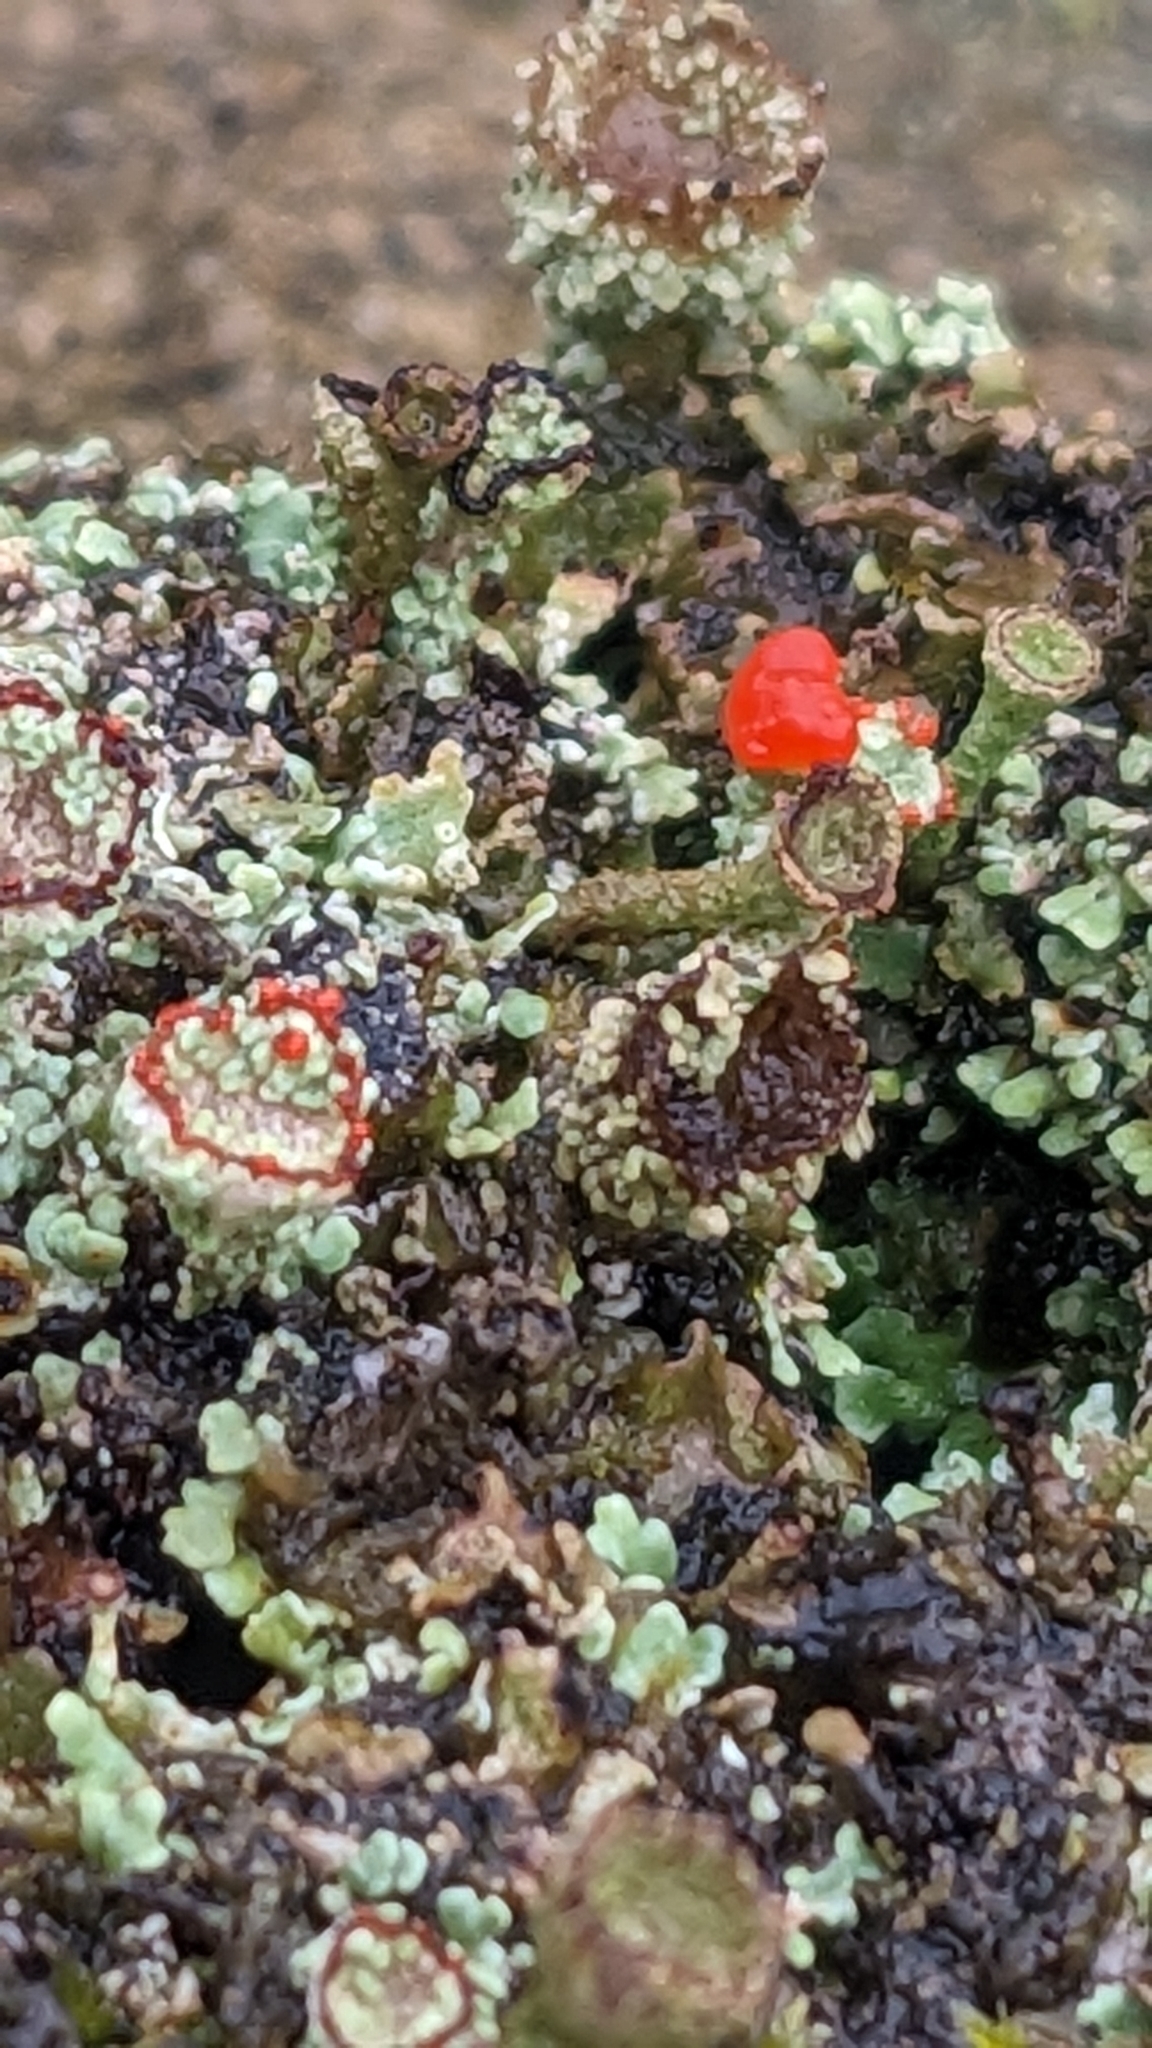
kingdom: Fungi
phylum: Ascomycota
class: Lecanoromycetes
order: Lecanorales
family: Cladoniaceae
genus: Cladonia
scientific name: Cladonia coccifera
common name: Scarlet-cup lichen
